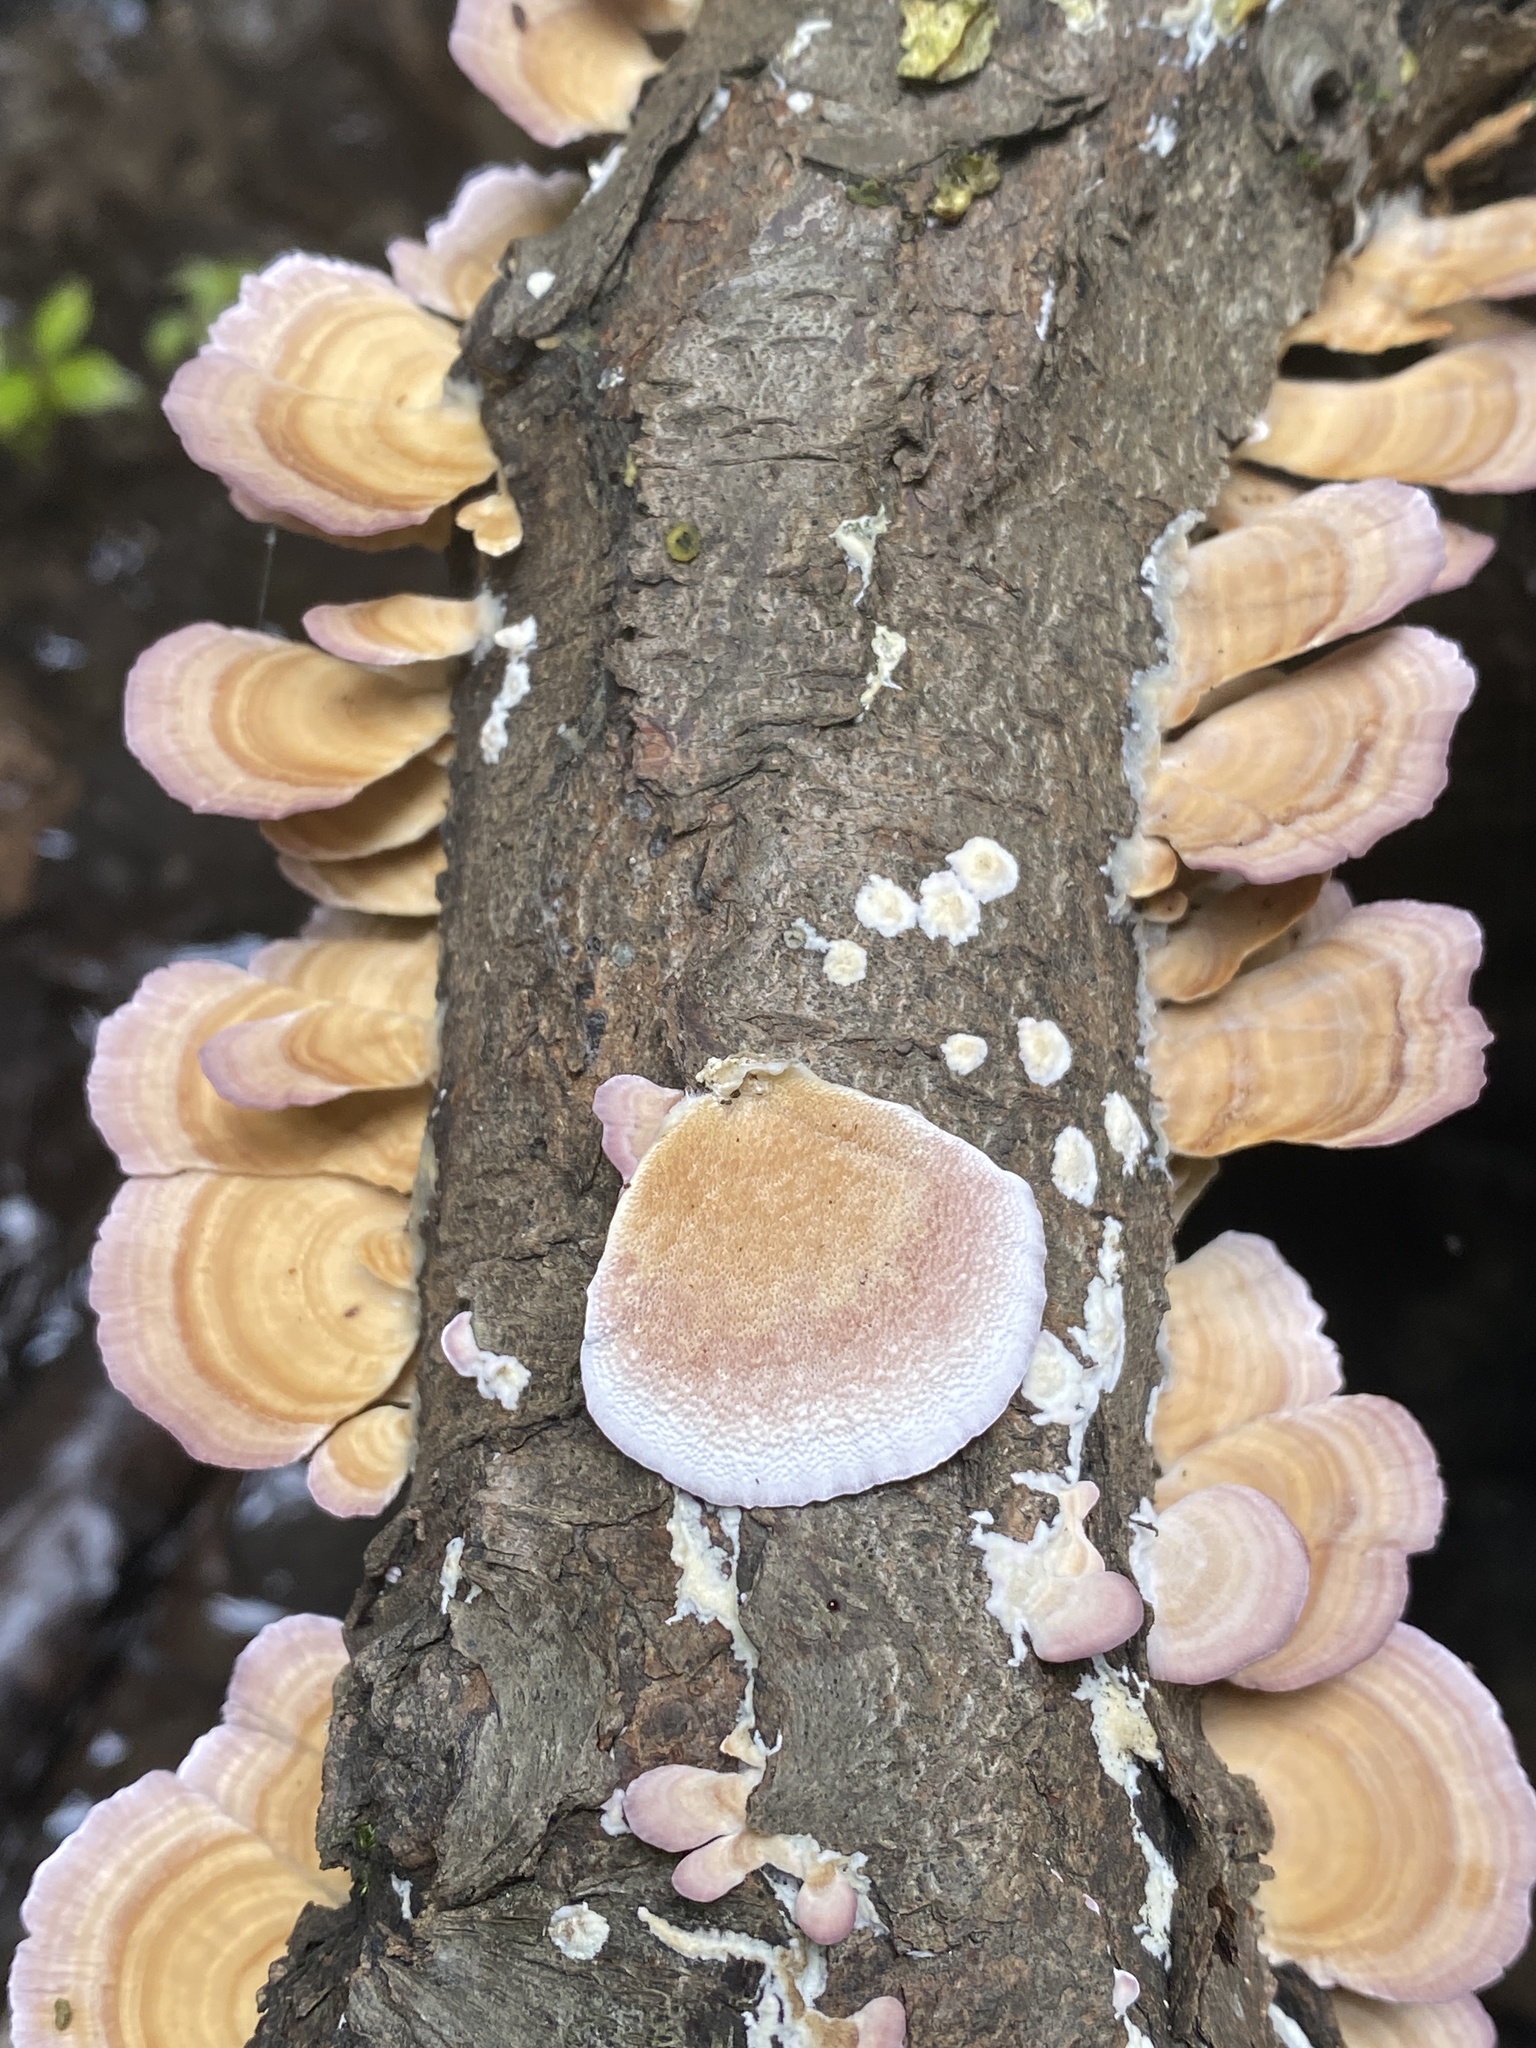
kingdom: Fungi
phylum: Basidiomycota
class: Agaricomycetes
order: Hymenochaetales
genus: Trichaptum
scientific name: Trichaptum biforme
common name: Violet-toothed polypore
